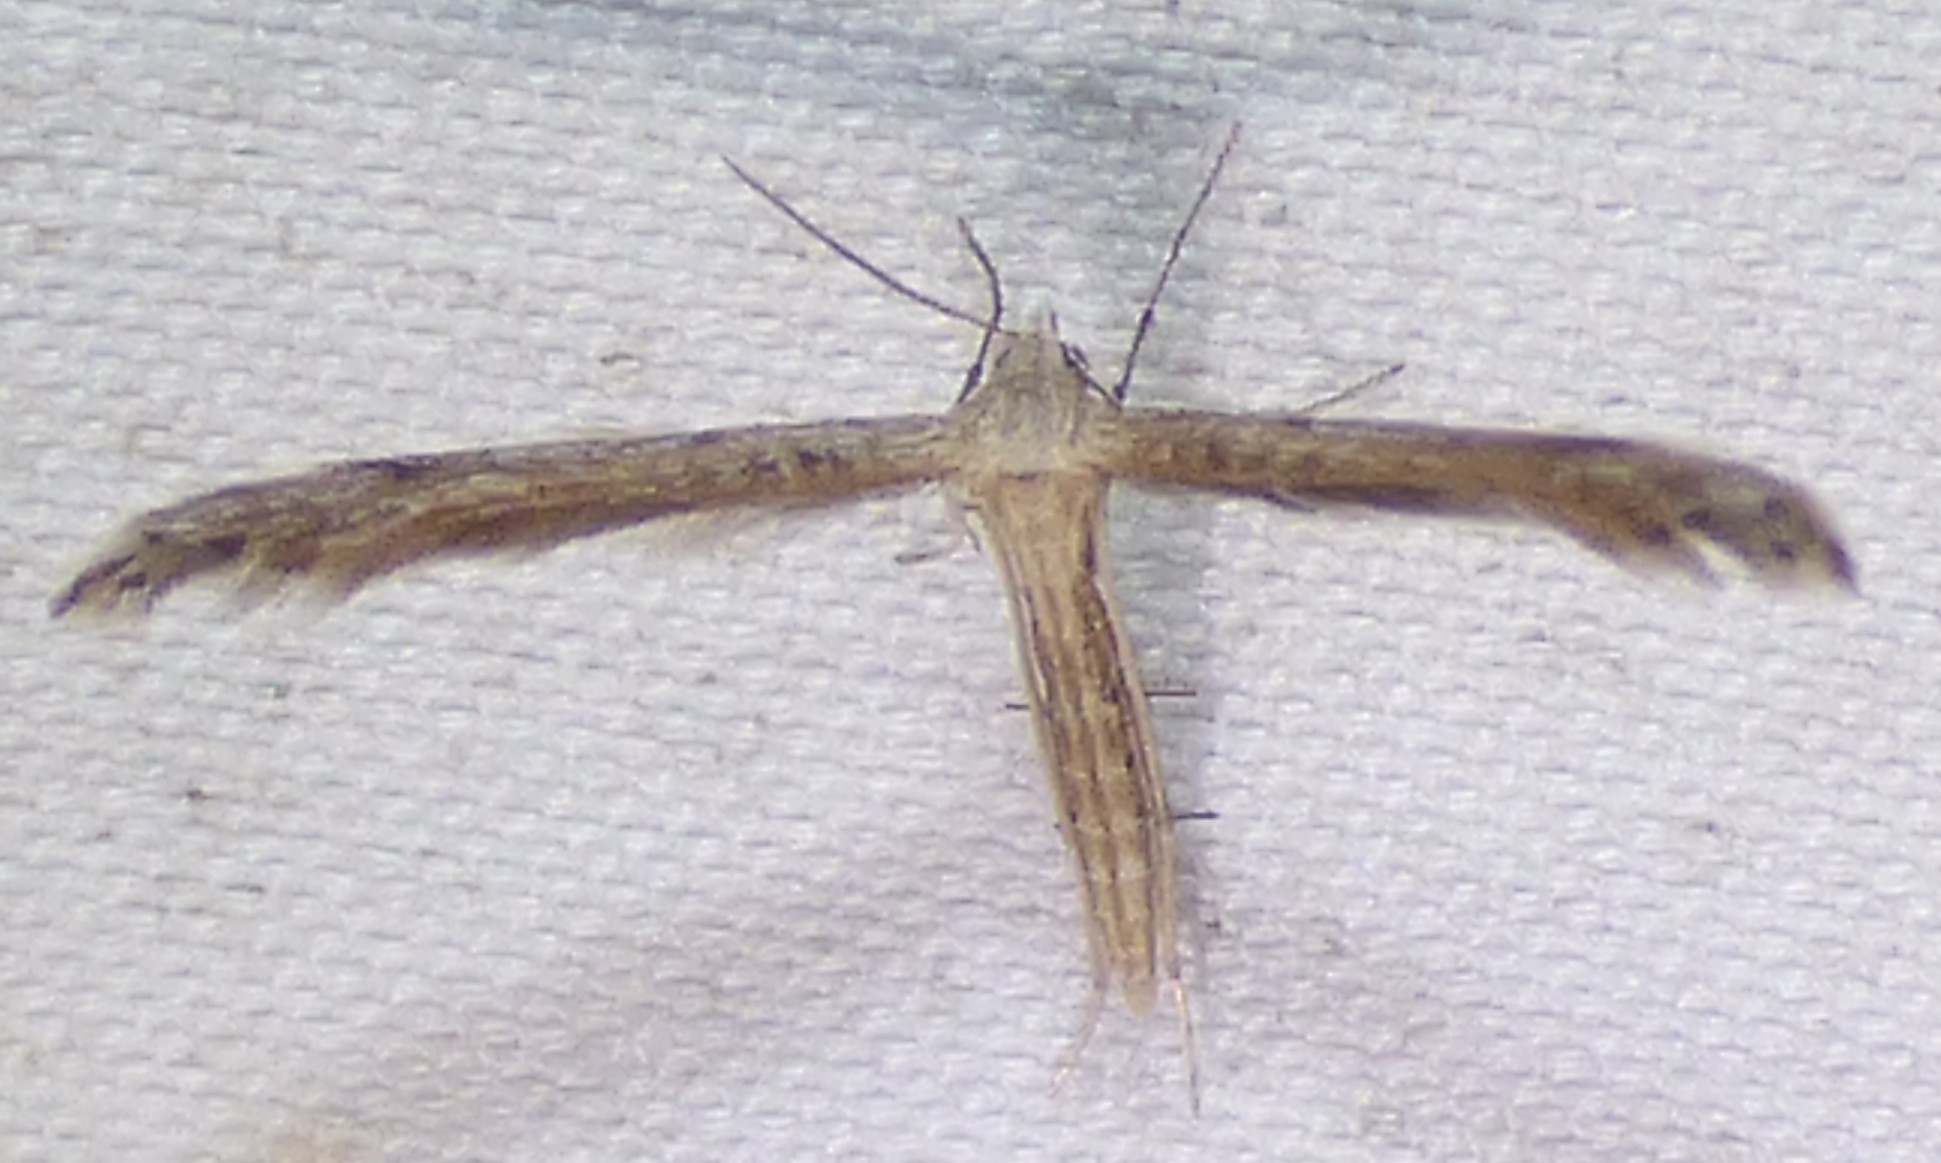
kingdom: Animalia
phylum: Arthropoda
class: Insecta
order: Lepidoptera
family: Pterophoridae
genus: Lioptilodes
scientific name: Lioptilodes albistriolatus
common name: Moth
